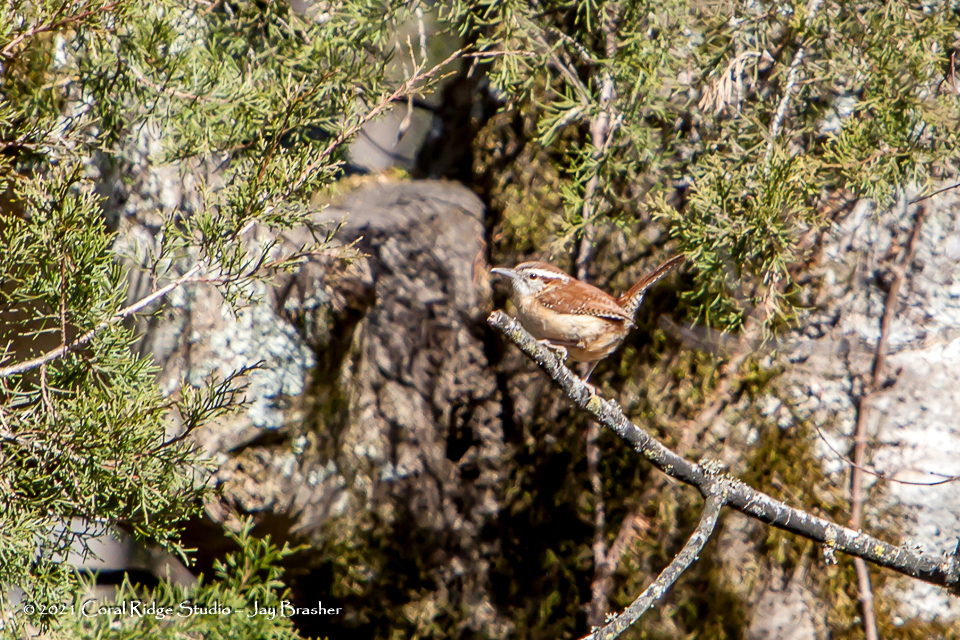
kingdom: Animalia
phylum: Chordata
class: Aves
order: Passeriformes
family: Troglodytidae
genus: Thryothorus
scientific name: Thryothorus ludovicianus
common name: Carolina wren
